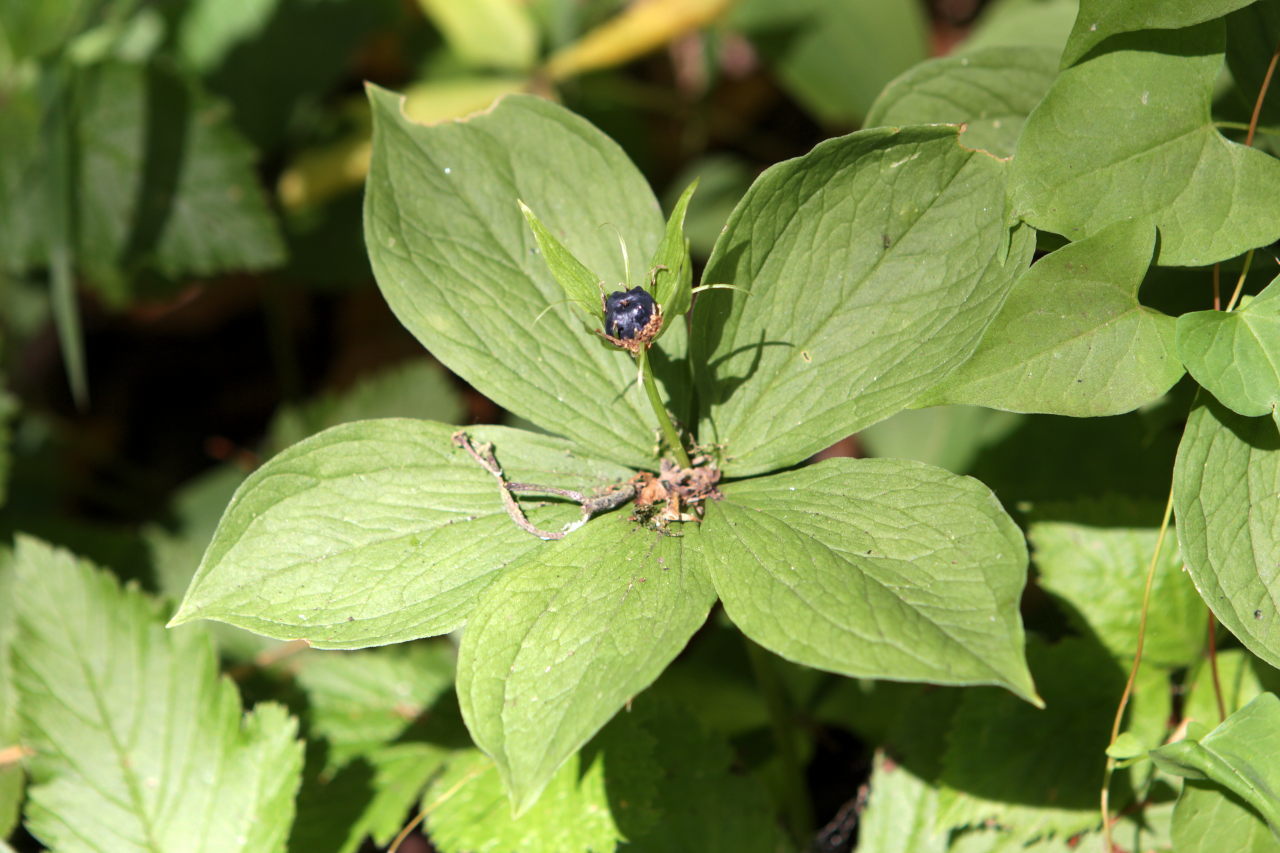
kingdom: Plantae
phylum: Tracheophyta
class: Liliopsida
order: Liliales
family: Melanthiaceae
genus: Paris
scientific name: Paris quadrifolia
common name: Herb-paris
